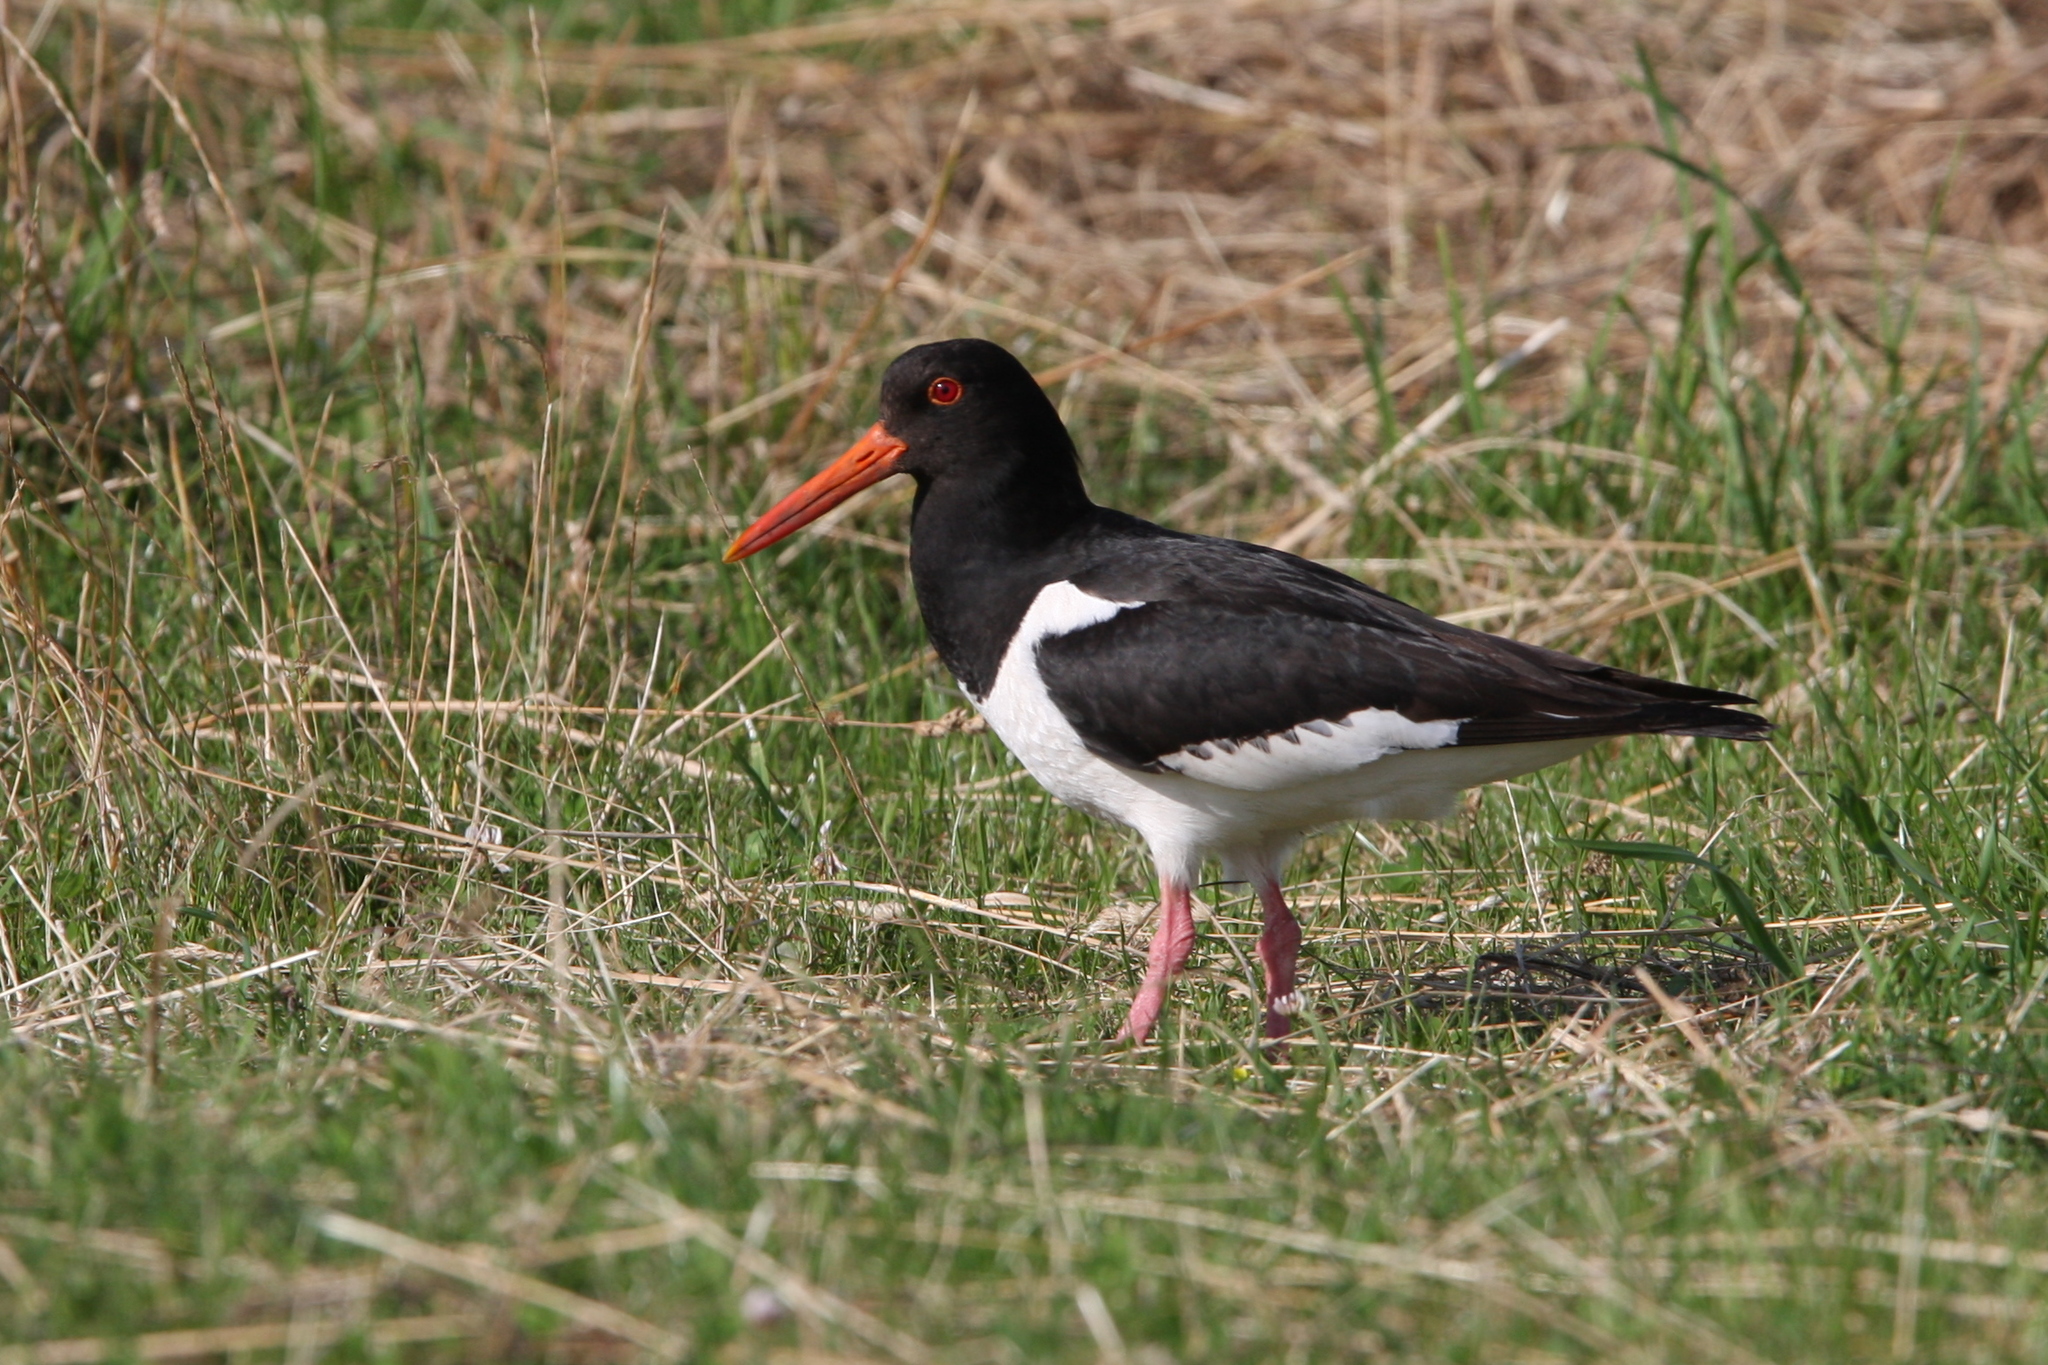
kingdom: Animalia
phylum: Chordata
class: Aves
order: Charadriiformes
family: Haematopodidae
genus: Haematopus
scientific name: Haematopus ostralegus
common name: Eurasian oystercatcher
